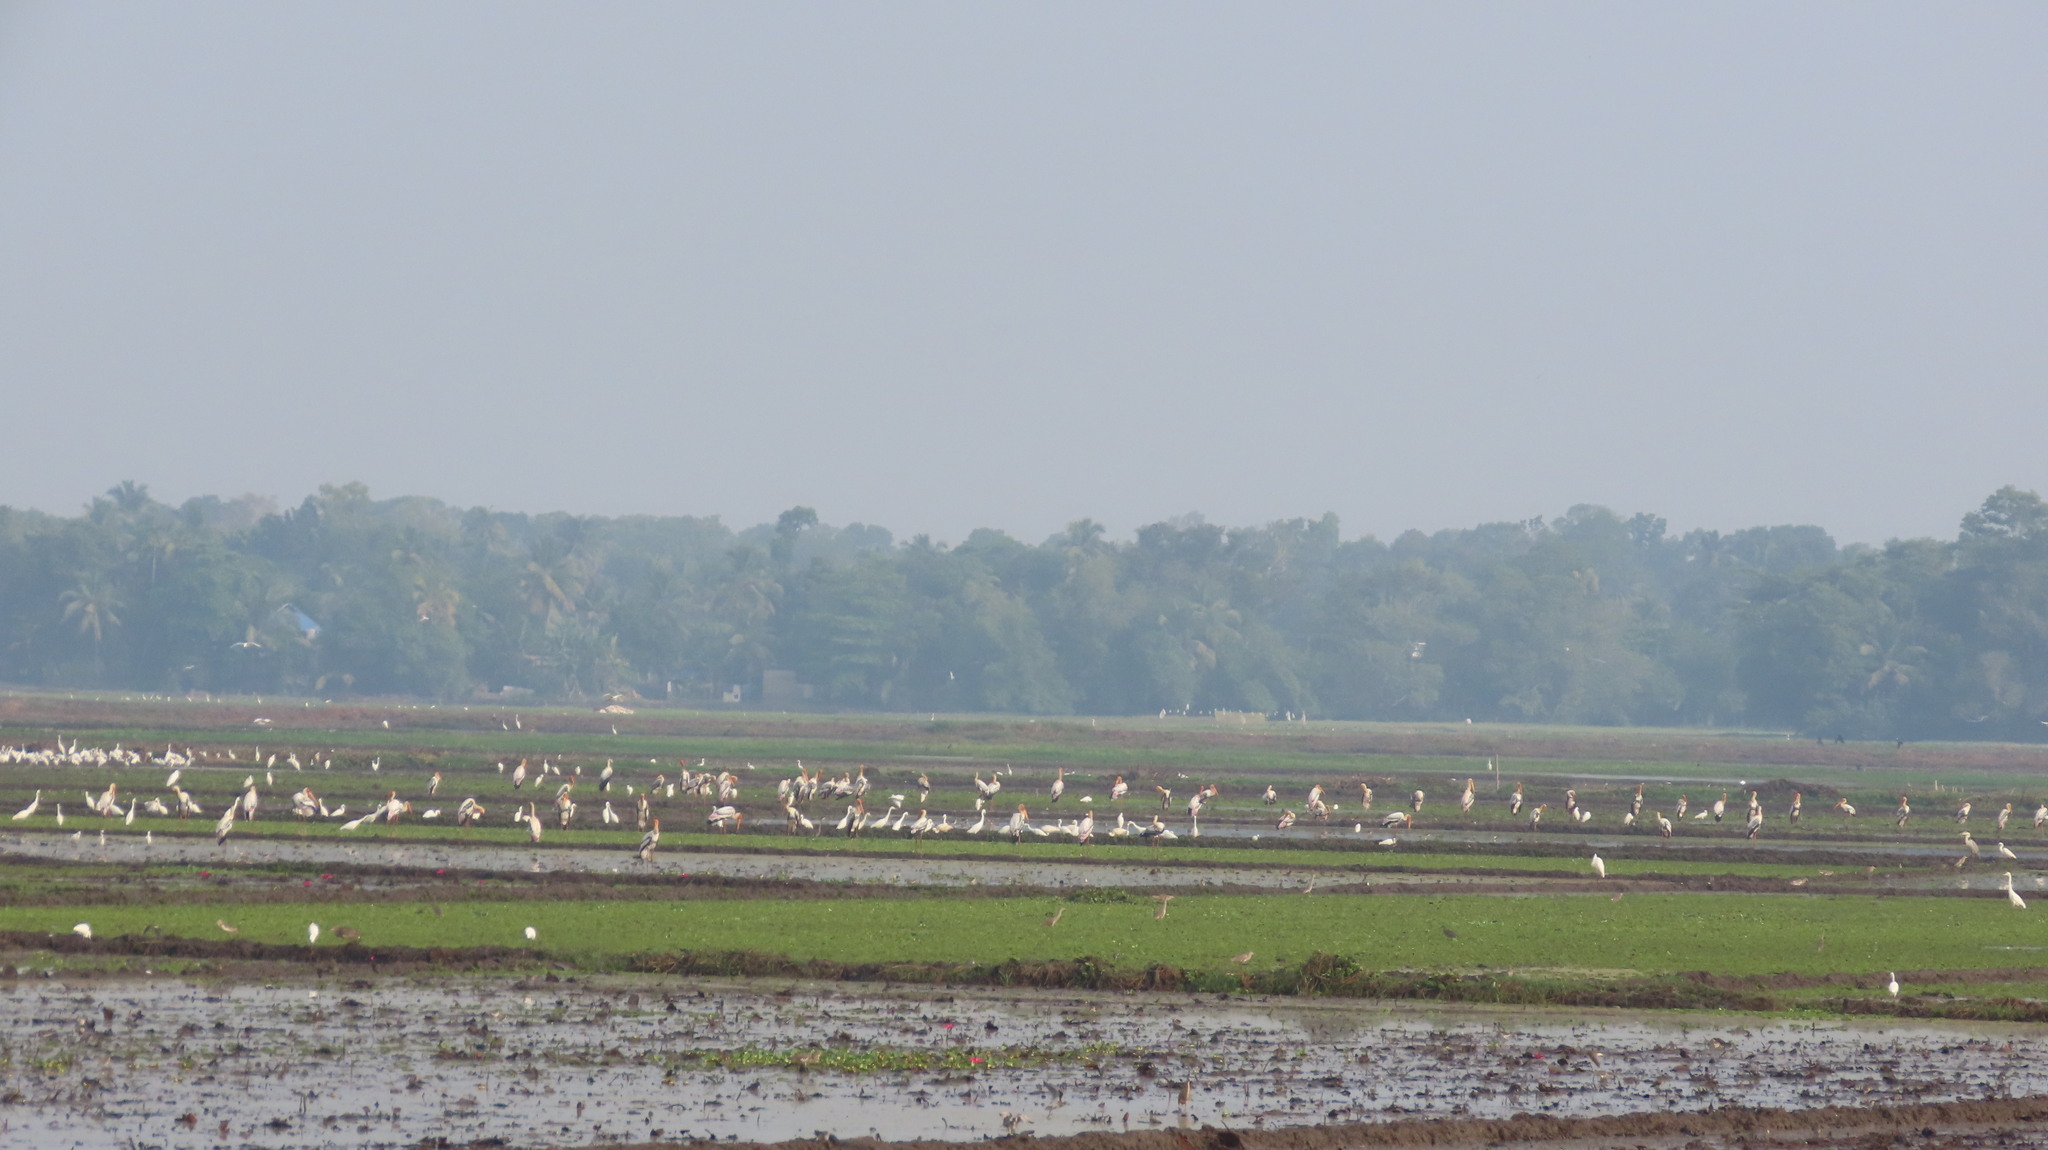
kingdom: Animalia
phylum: Chordata
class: Aves
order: Ciconiiformes
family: Ciconiidae
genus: Mycteria
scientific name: Mycteria leucocephala
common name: Painted stork
